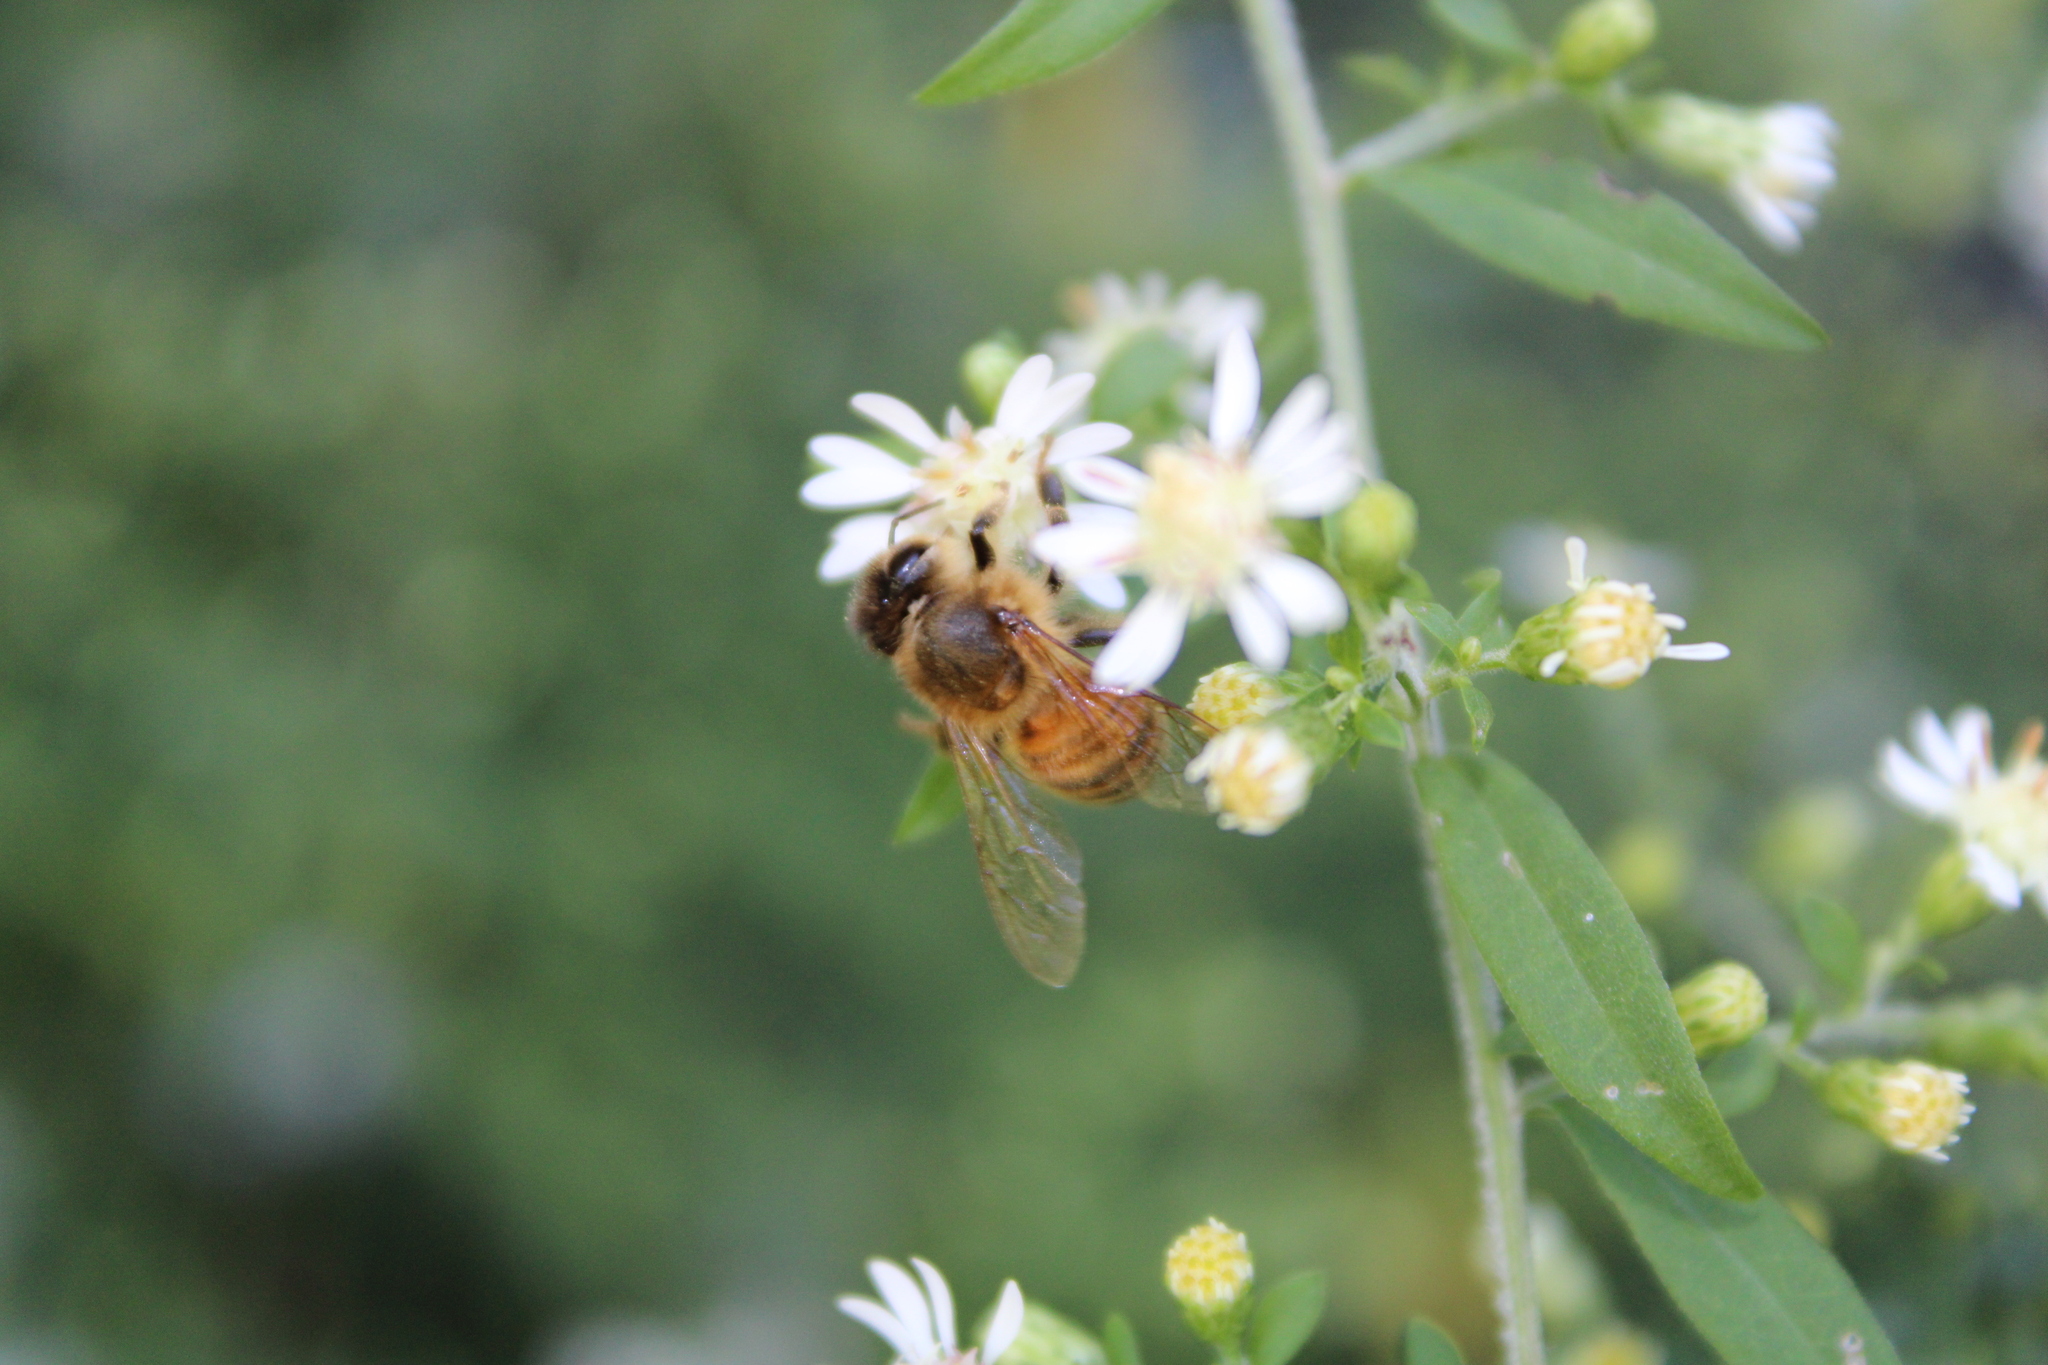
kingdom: Animalia
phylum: Arthropoda
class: Insecta
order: Hymenoptera
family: Apidae
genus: Apis
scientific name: Apis mellifera
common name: Honey bee
